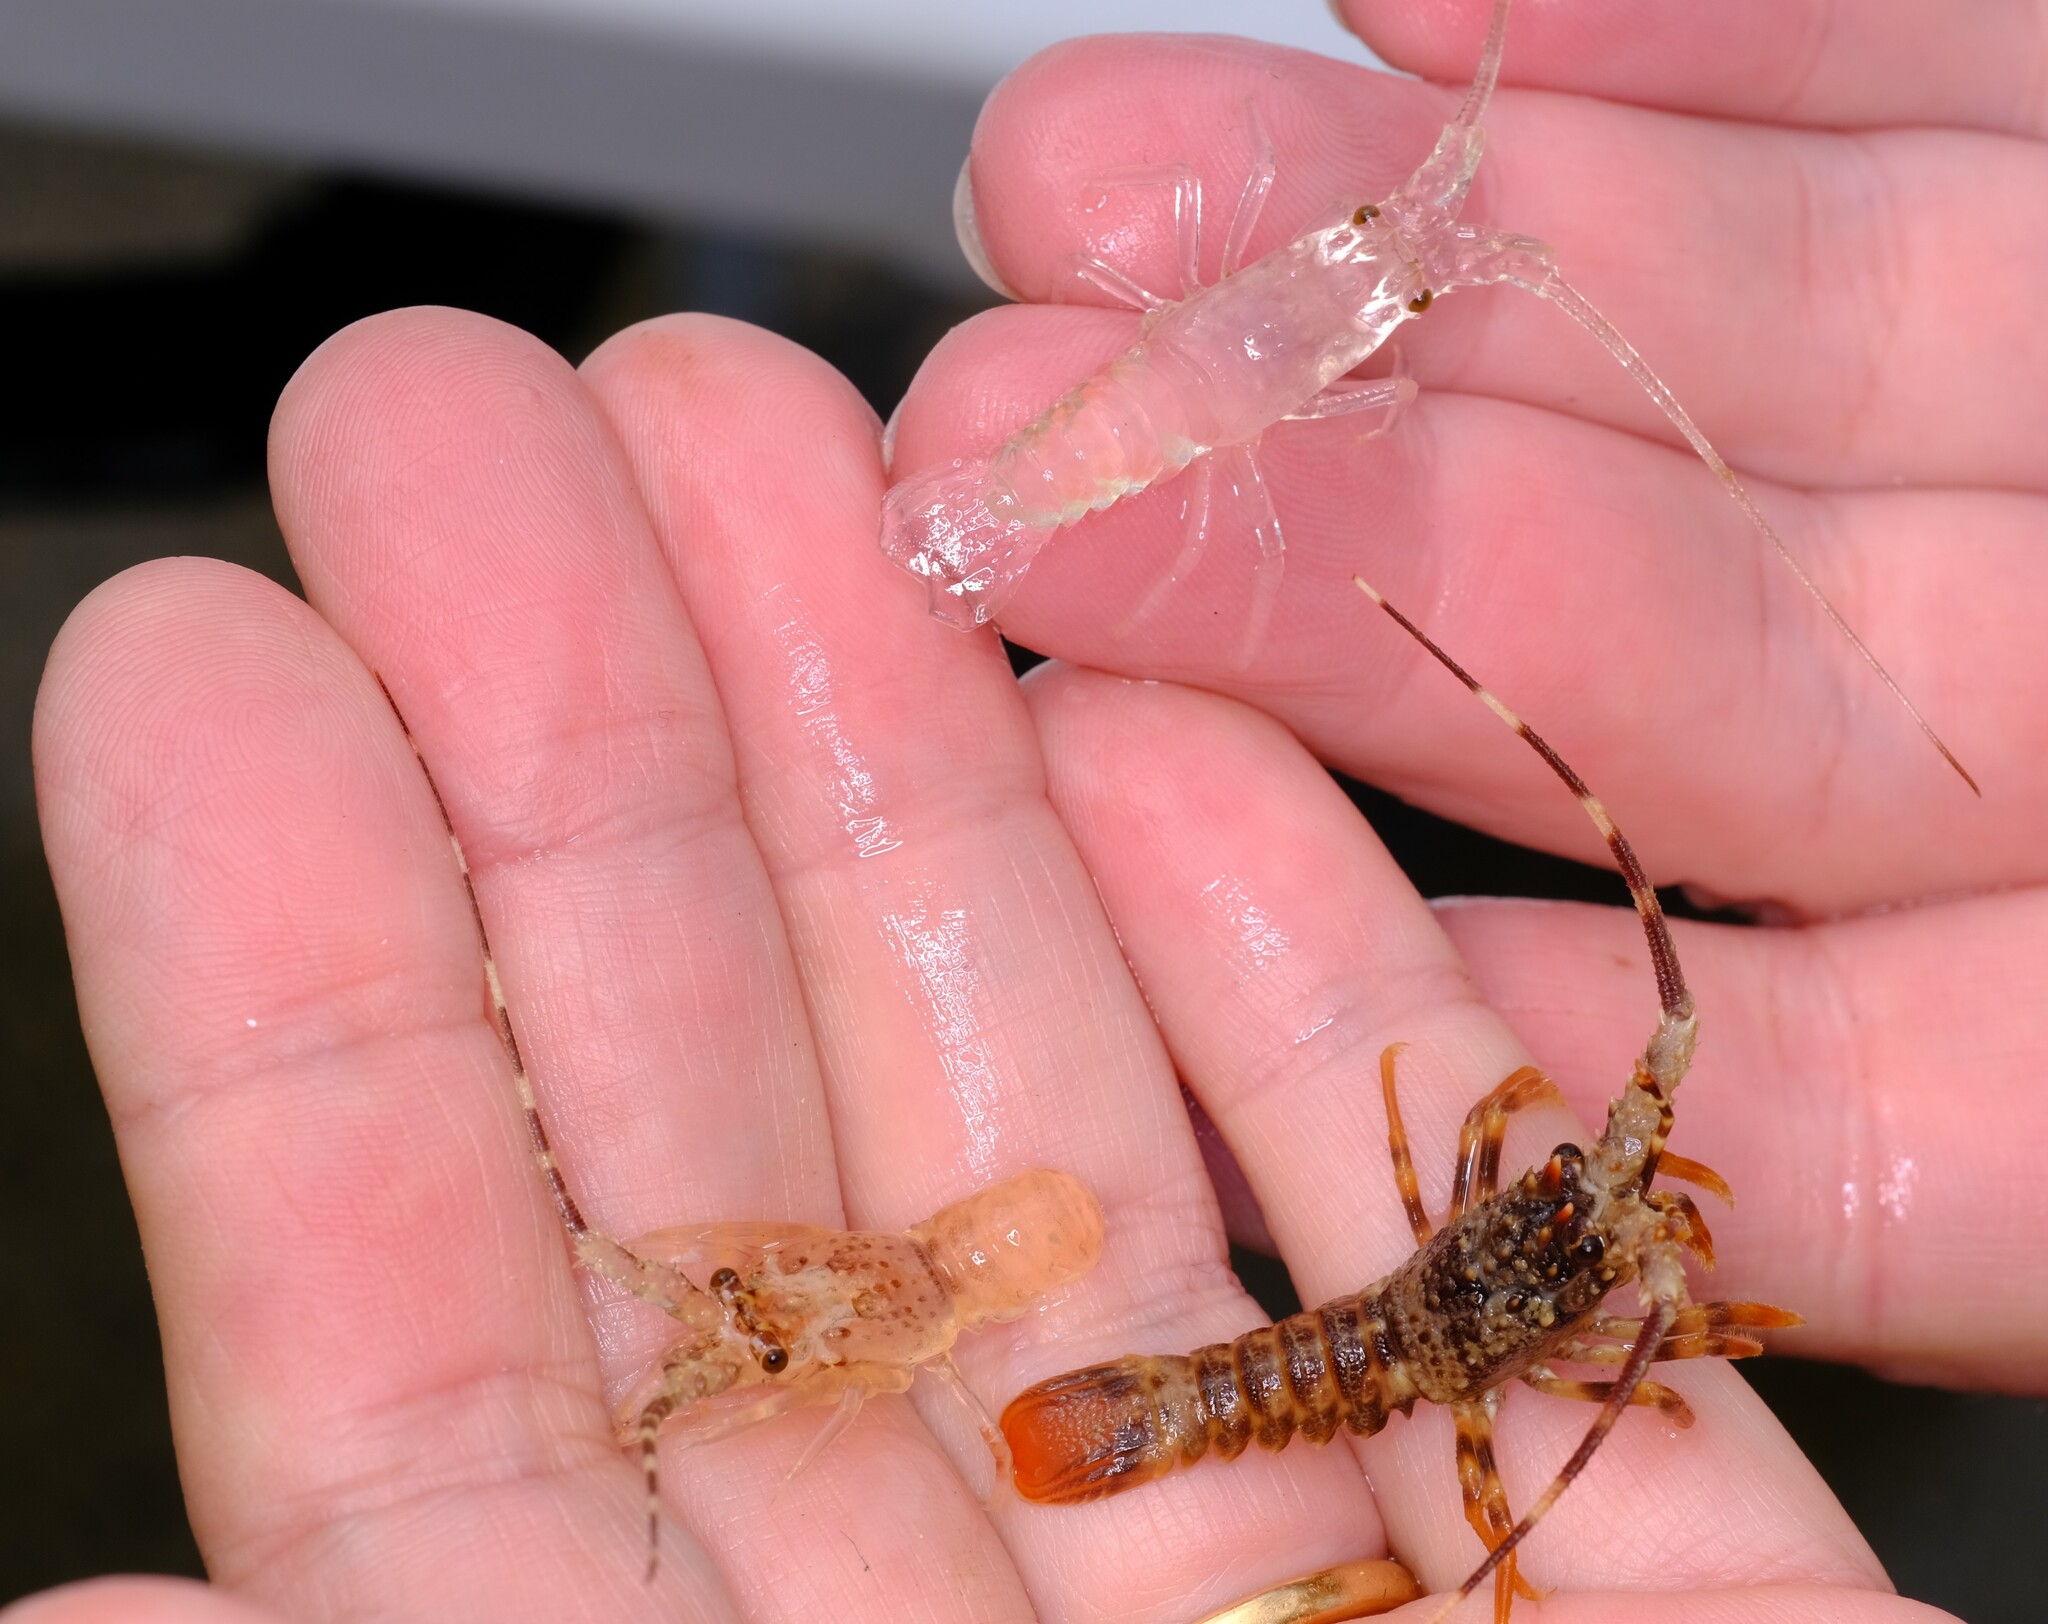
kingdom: Animalia
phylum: Arthropoda
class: Malacostraca
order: Decapoda
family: Palinuridae
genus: Jasus
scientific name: Jasus edwardsii
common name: Red rock lobster
